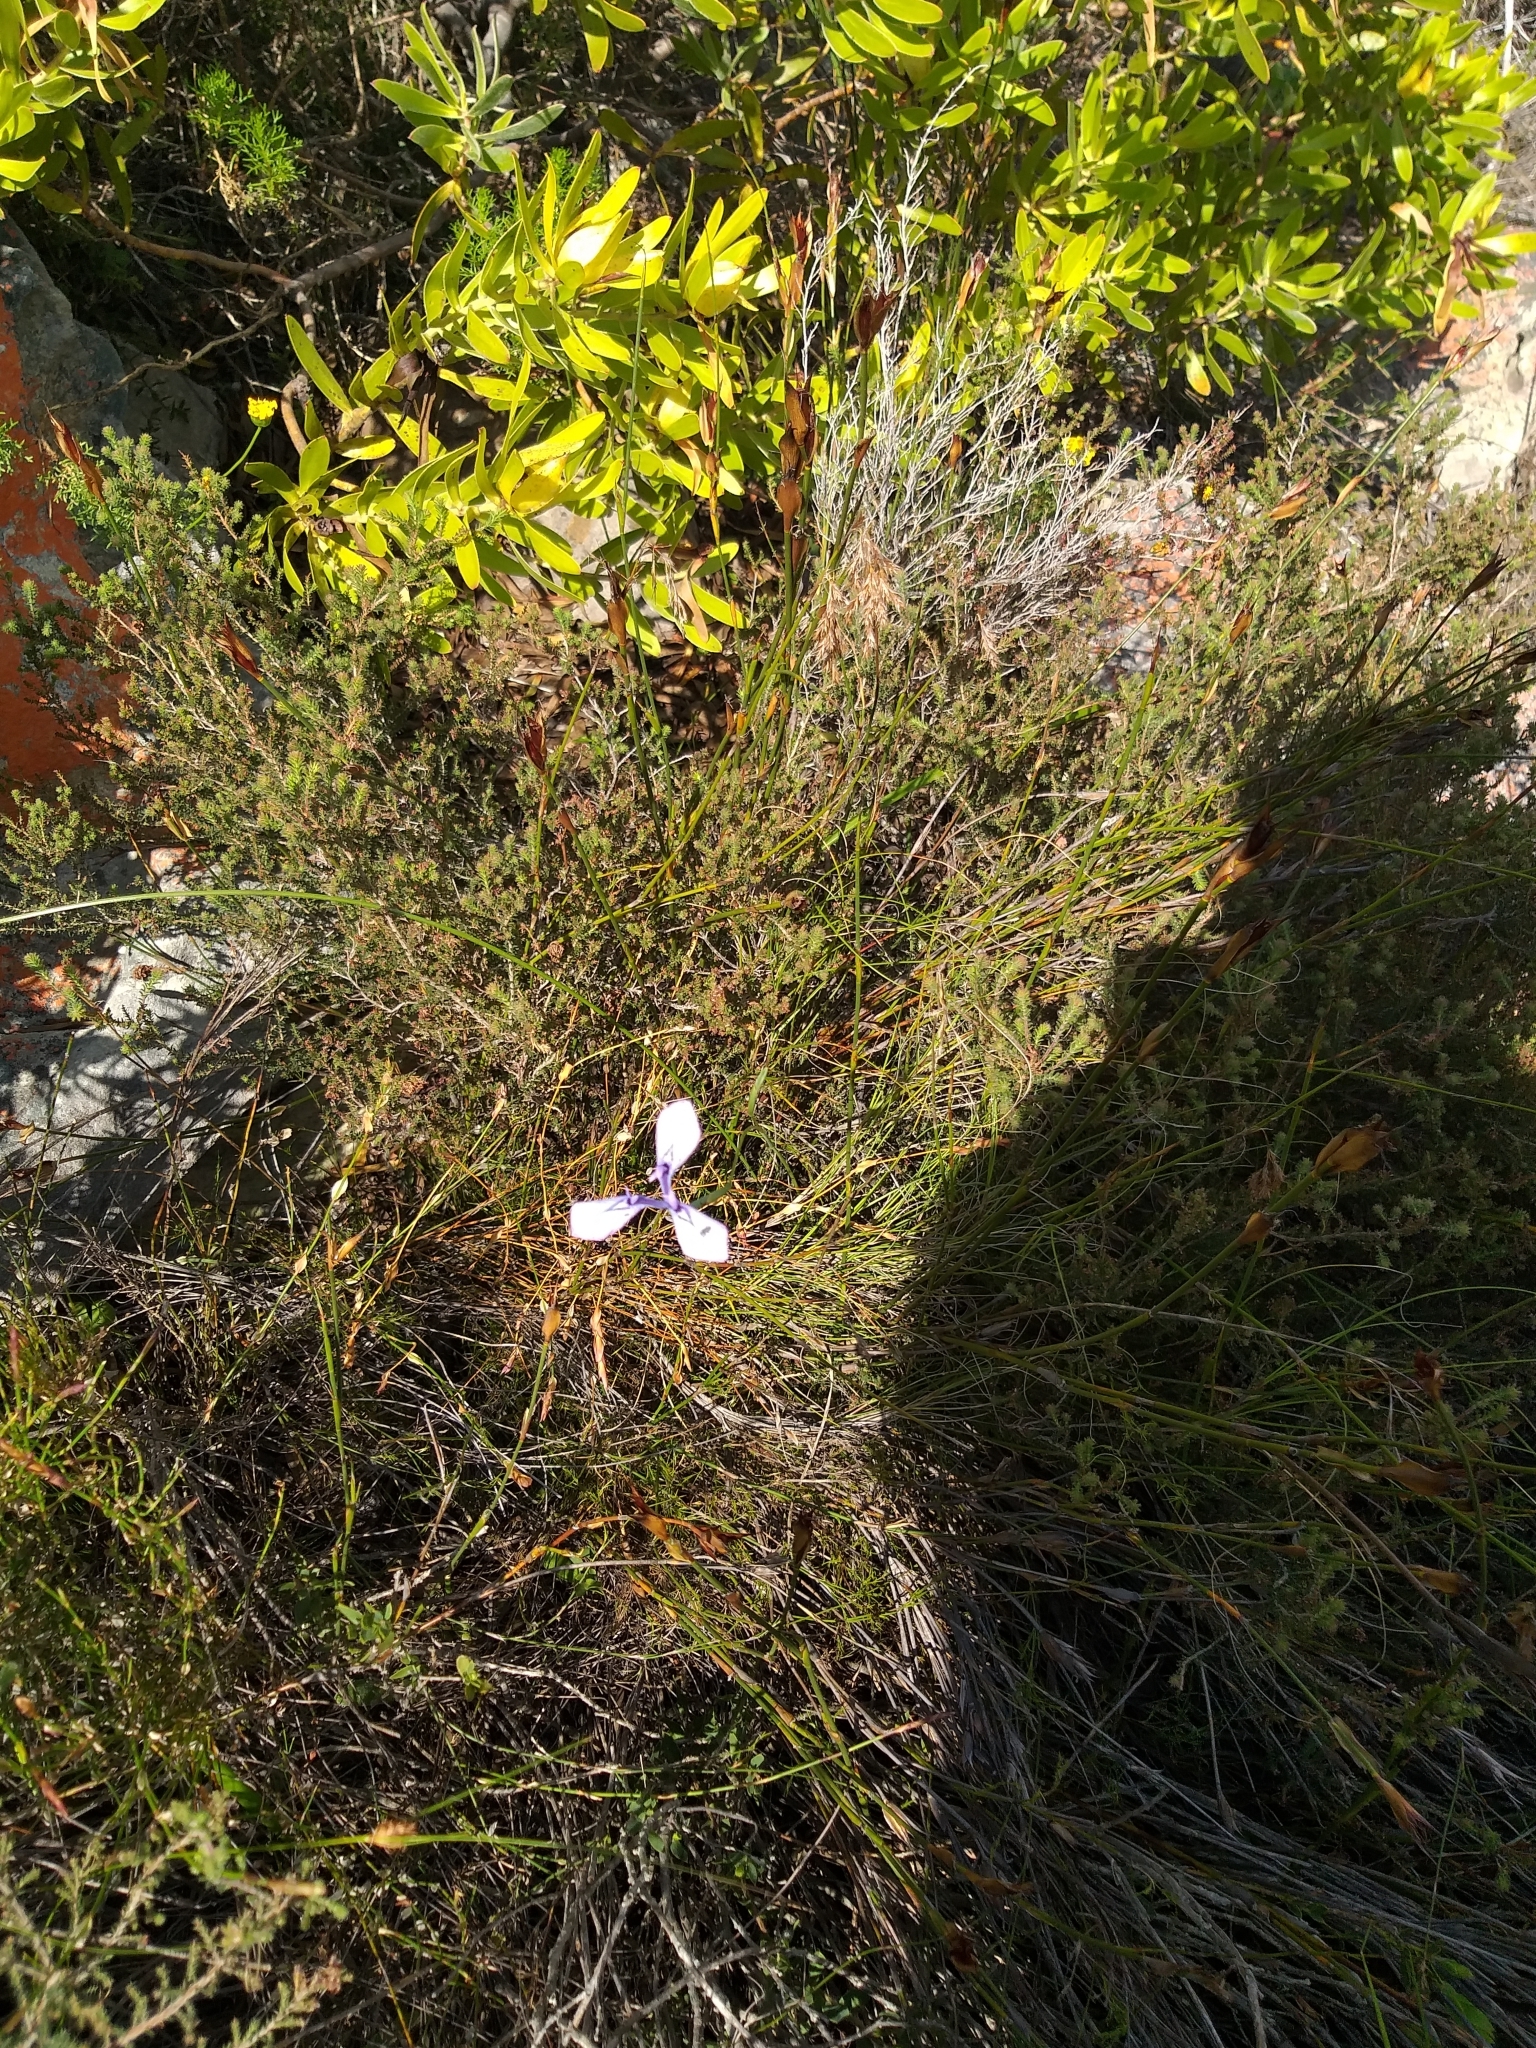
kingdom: Plantae
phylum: Tracheophyta
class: Liliopsida
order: Asparagales
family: Iridaceae
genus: Moraea
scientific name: Moraea tripetala
